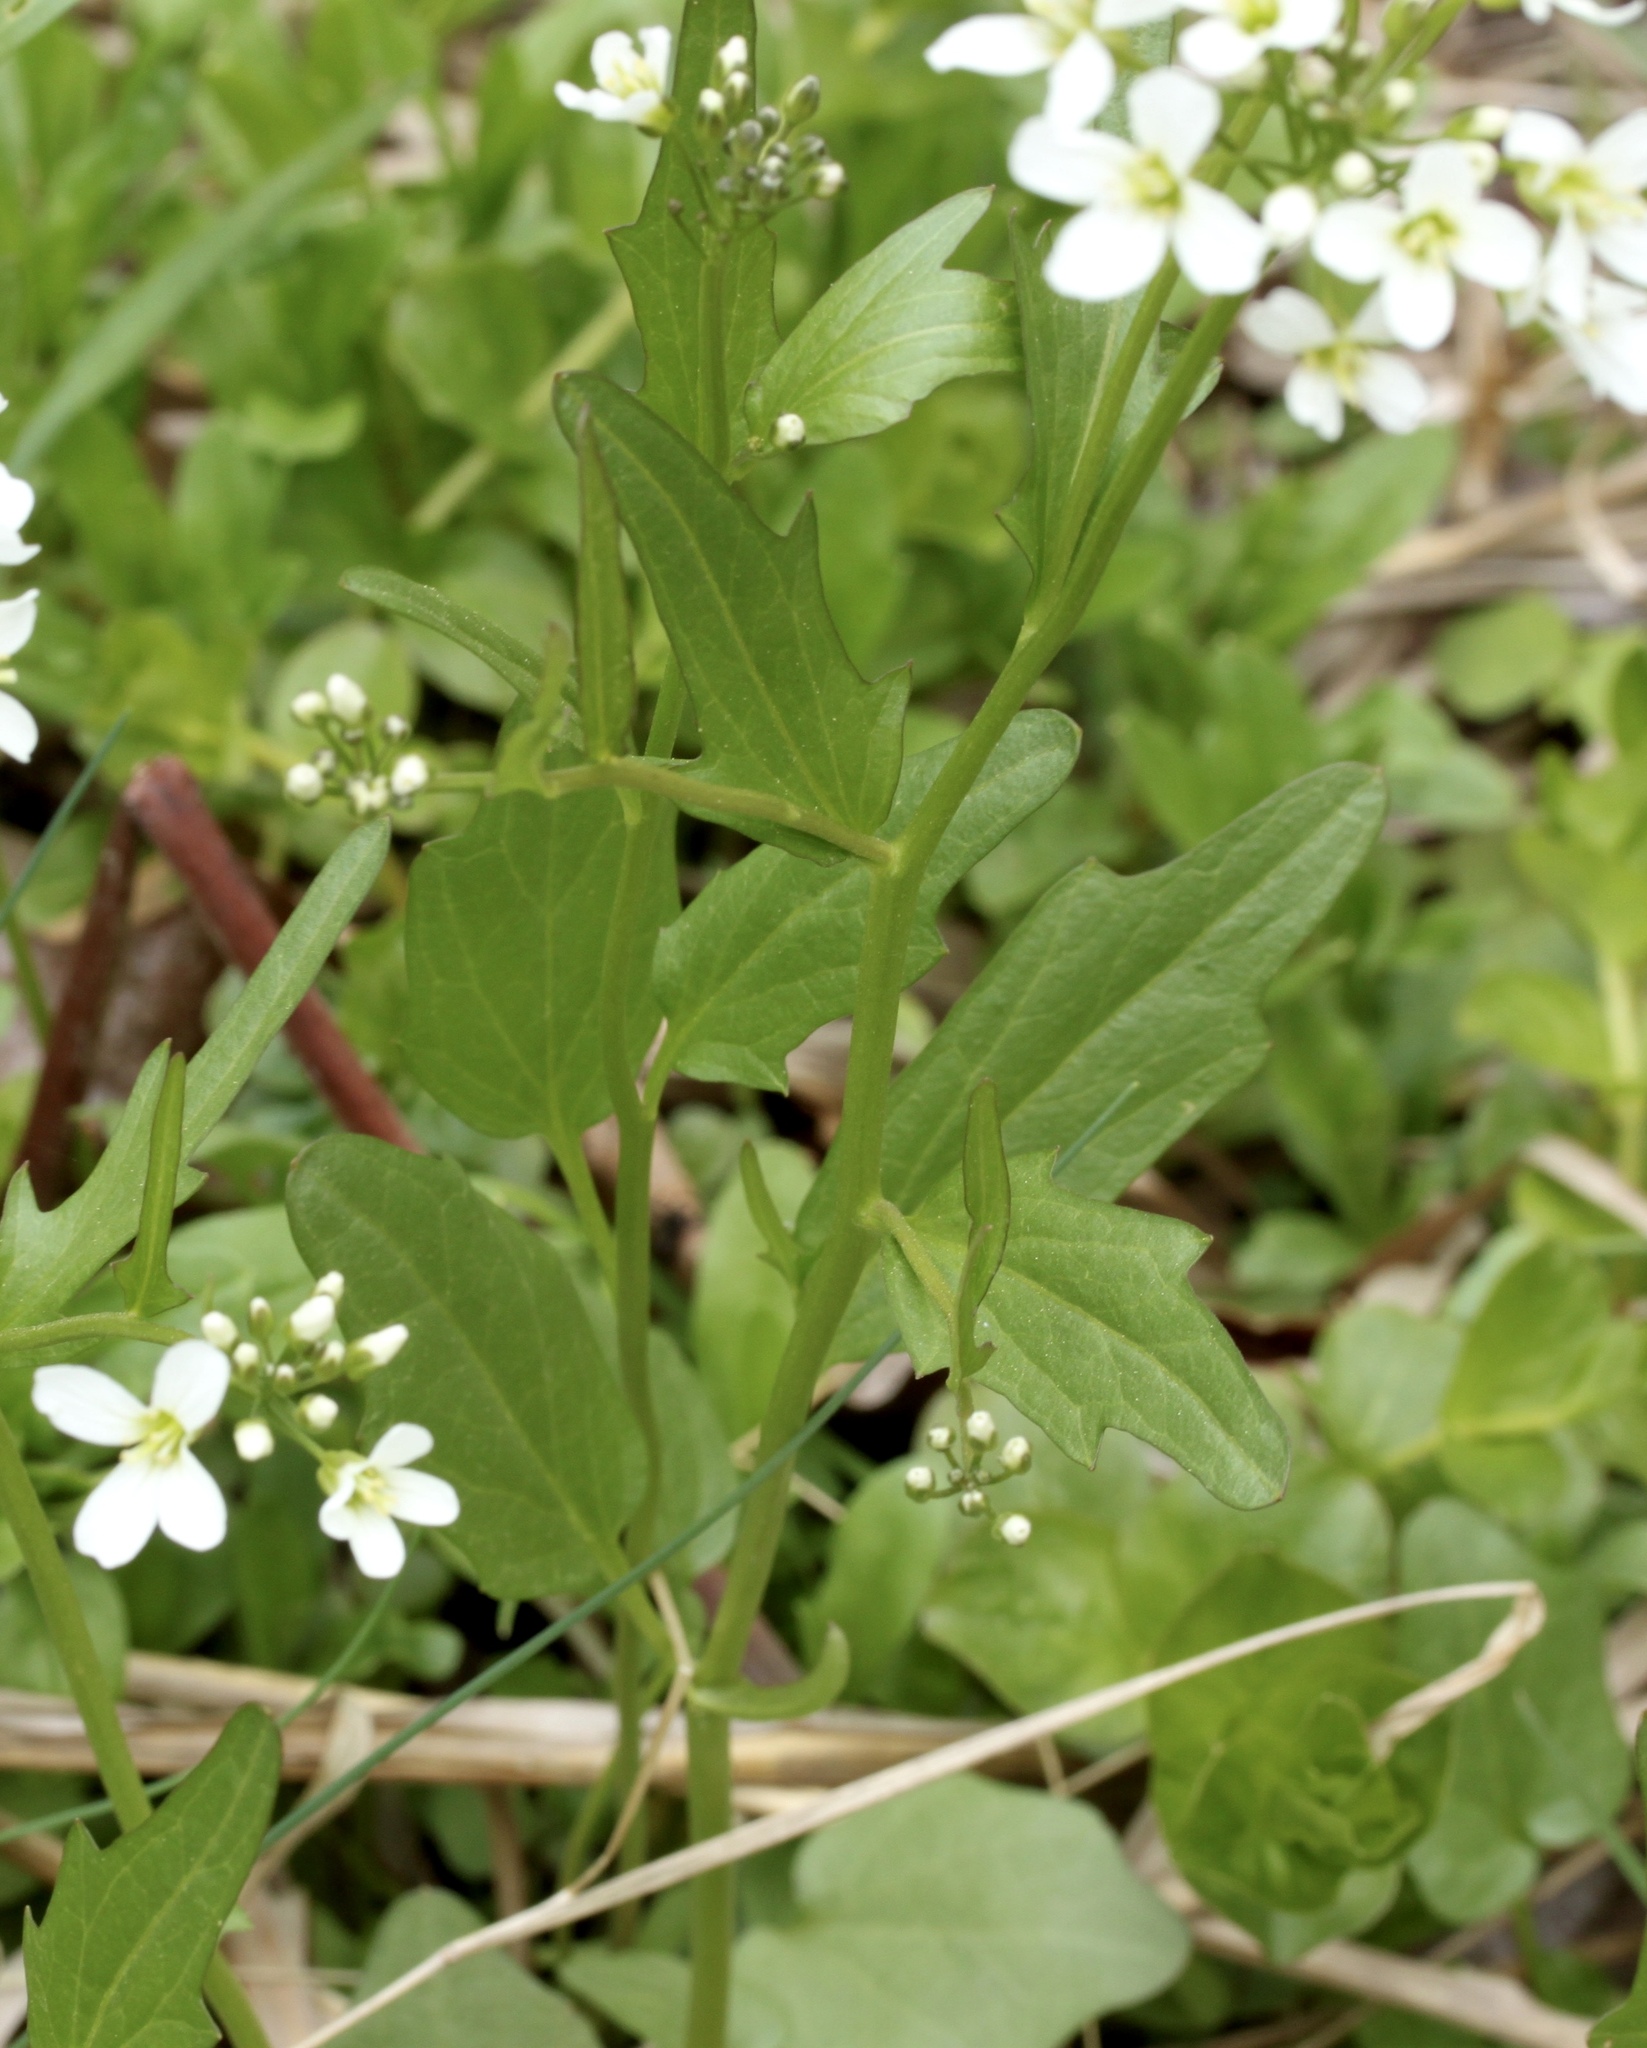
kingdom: Plantae
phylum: Tracheophyta
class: Magnoliopsida
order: Brassicales
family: Brassicaceae
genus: Cardamine
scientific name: Cardamine bulbosa
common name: Spring cress
